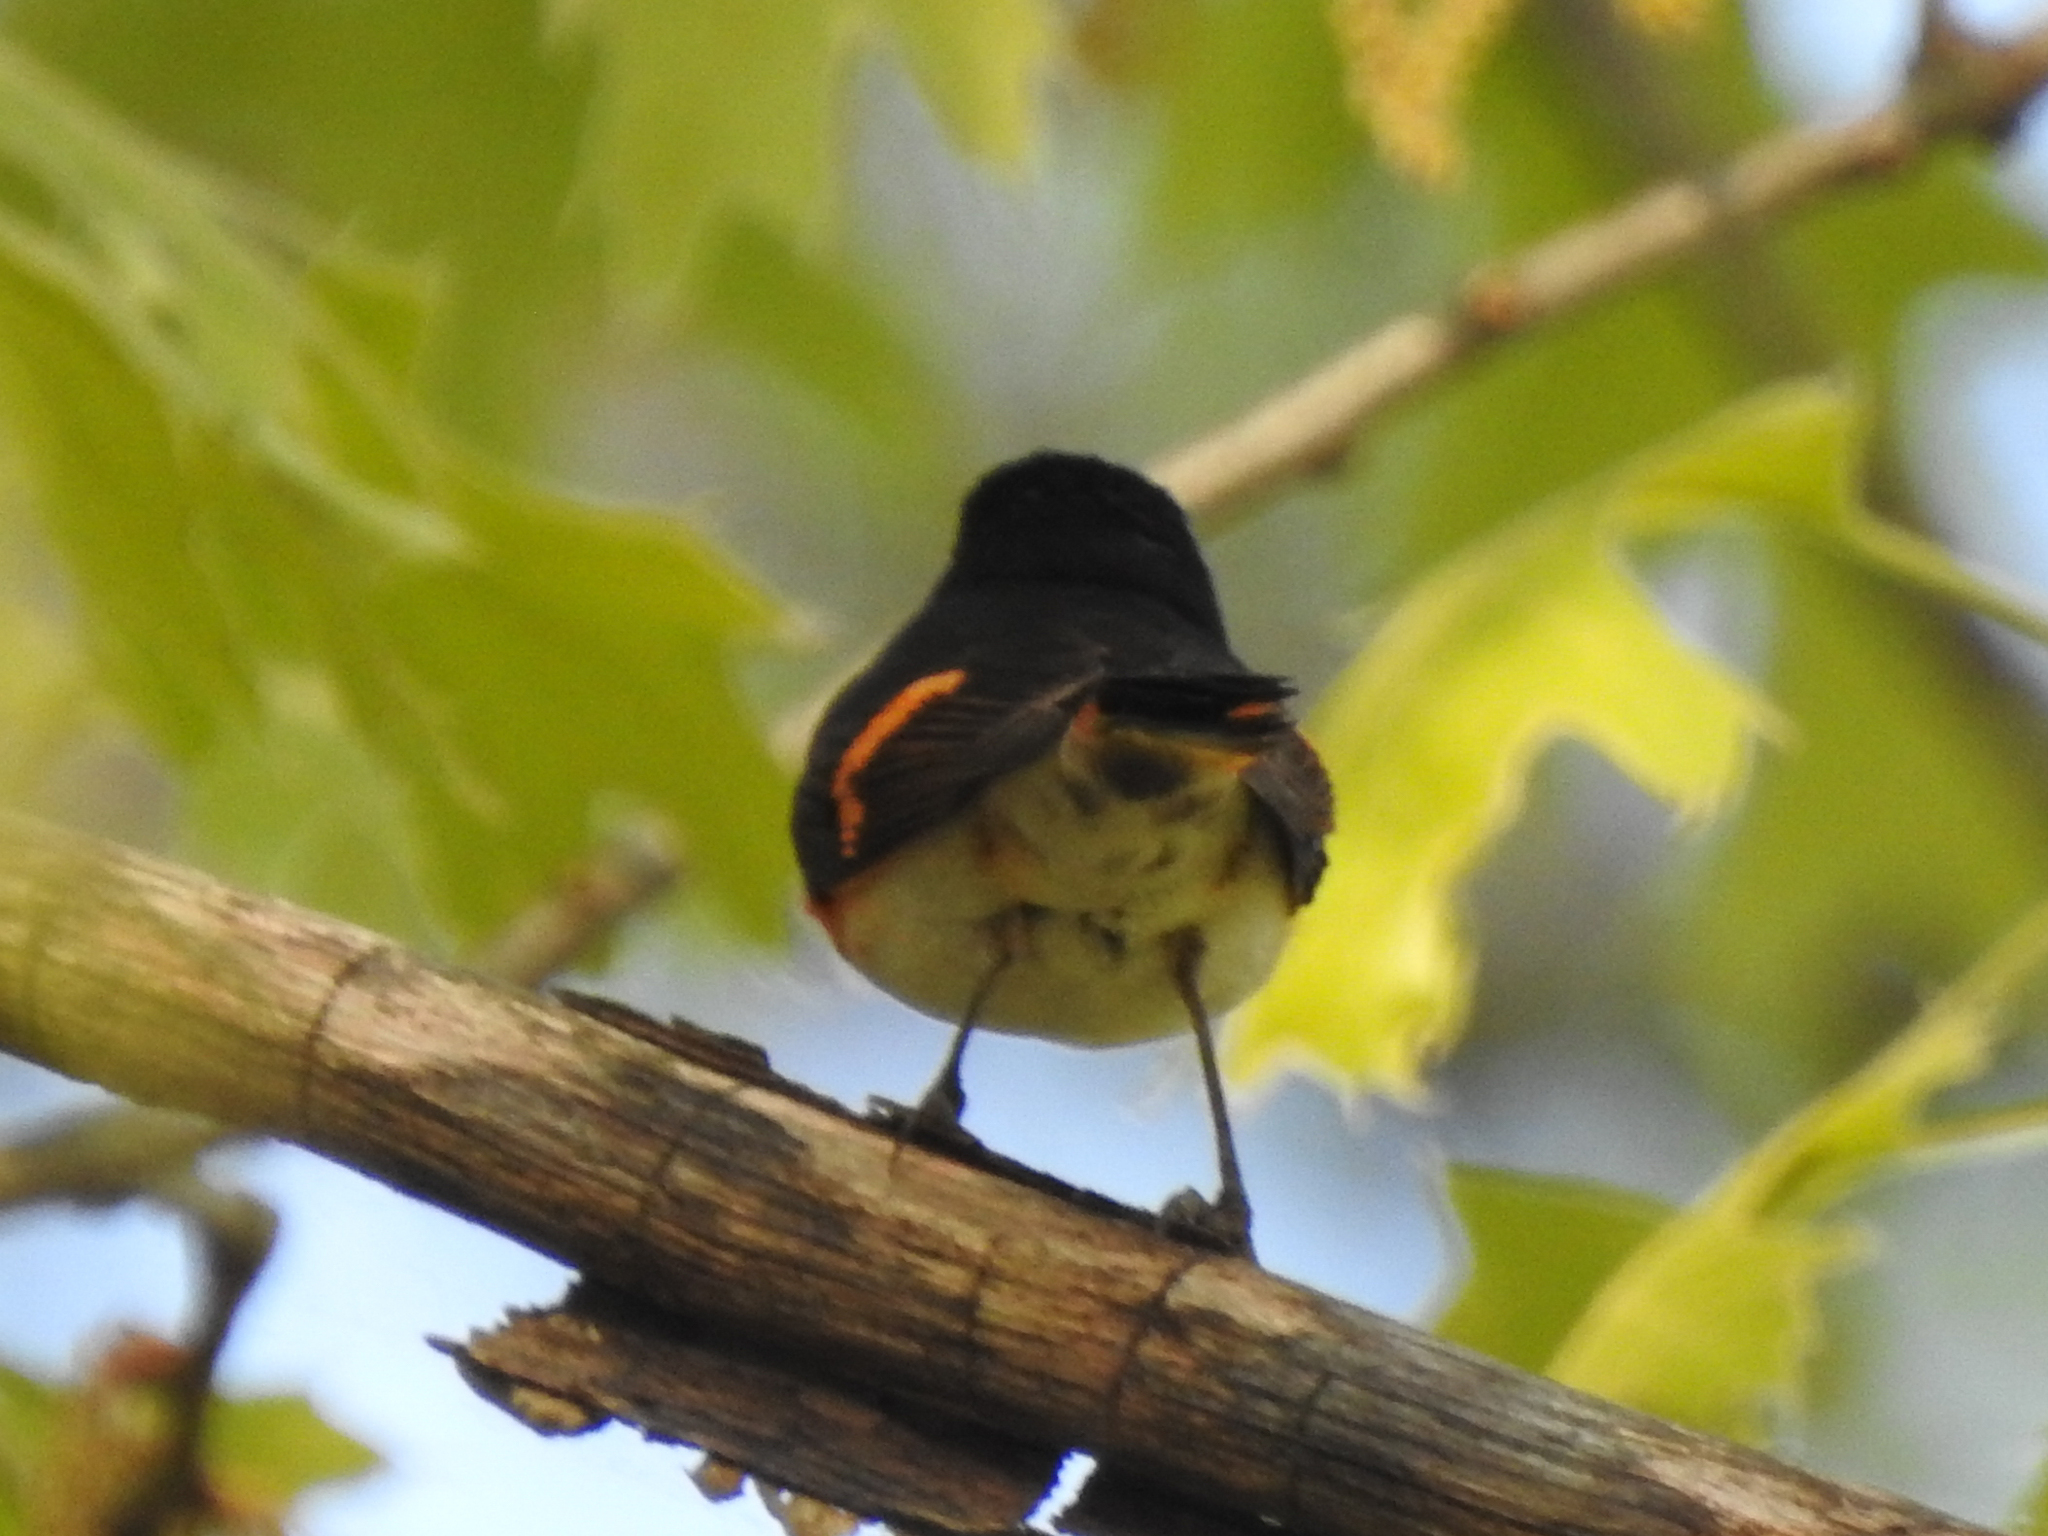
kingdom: Animalia
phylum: Chordata
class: Aves
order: Passeriformes
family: Parulidae
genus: Setophaga
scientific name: Setophaga ruticilla
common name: American redstart
